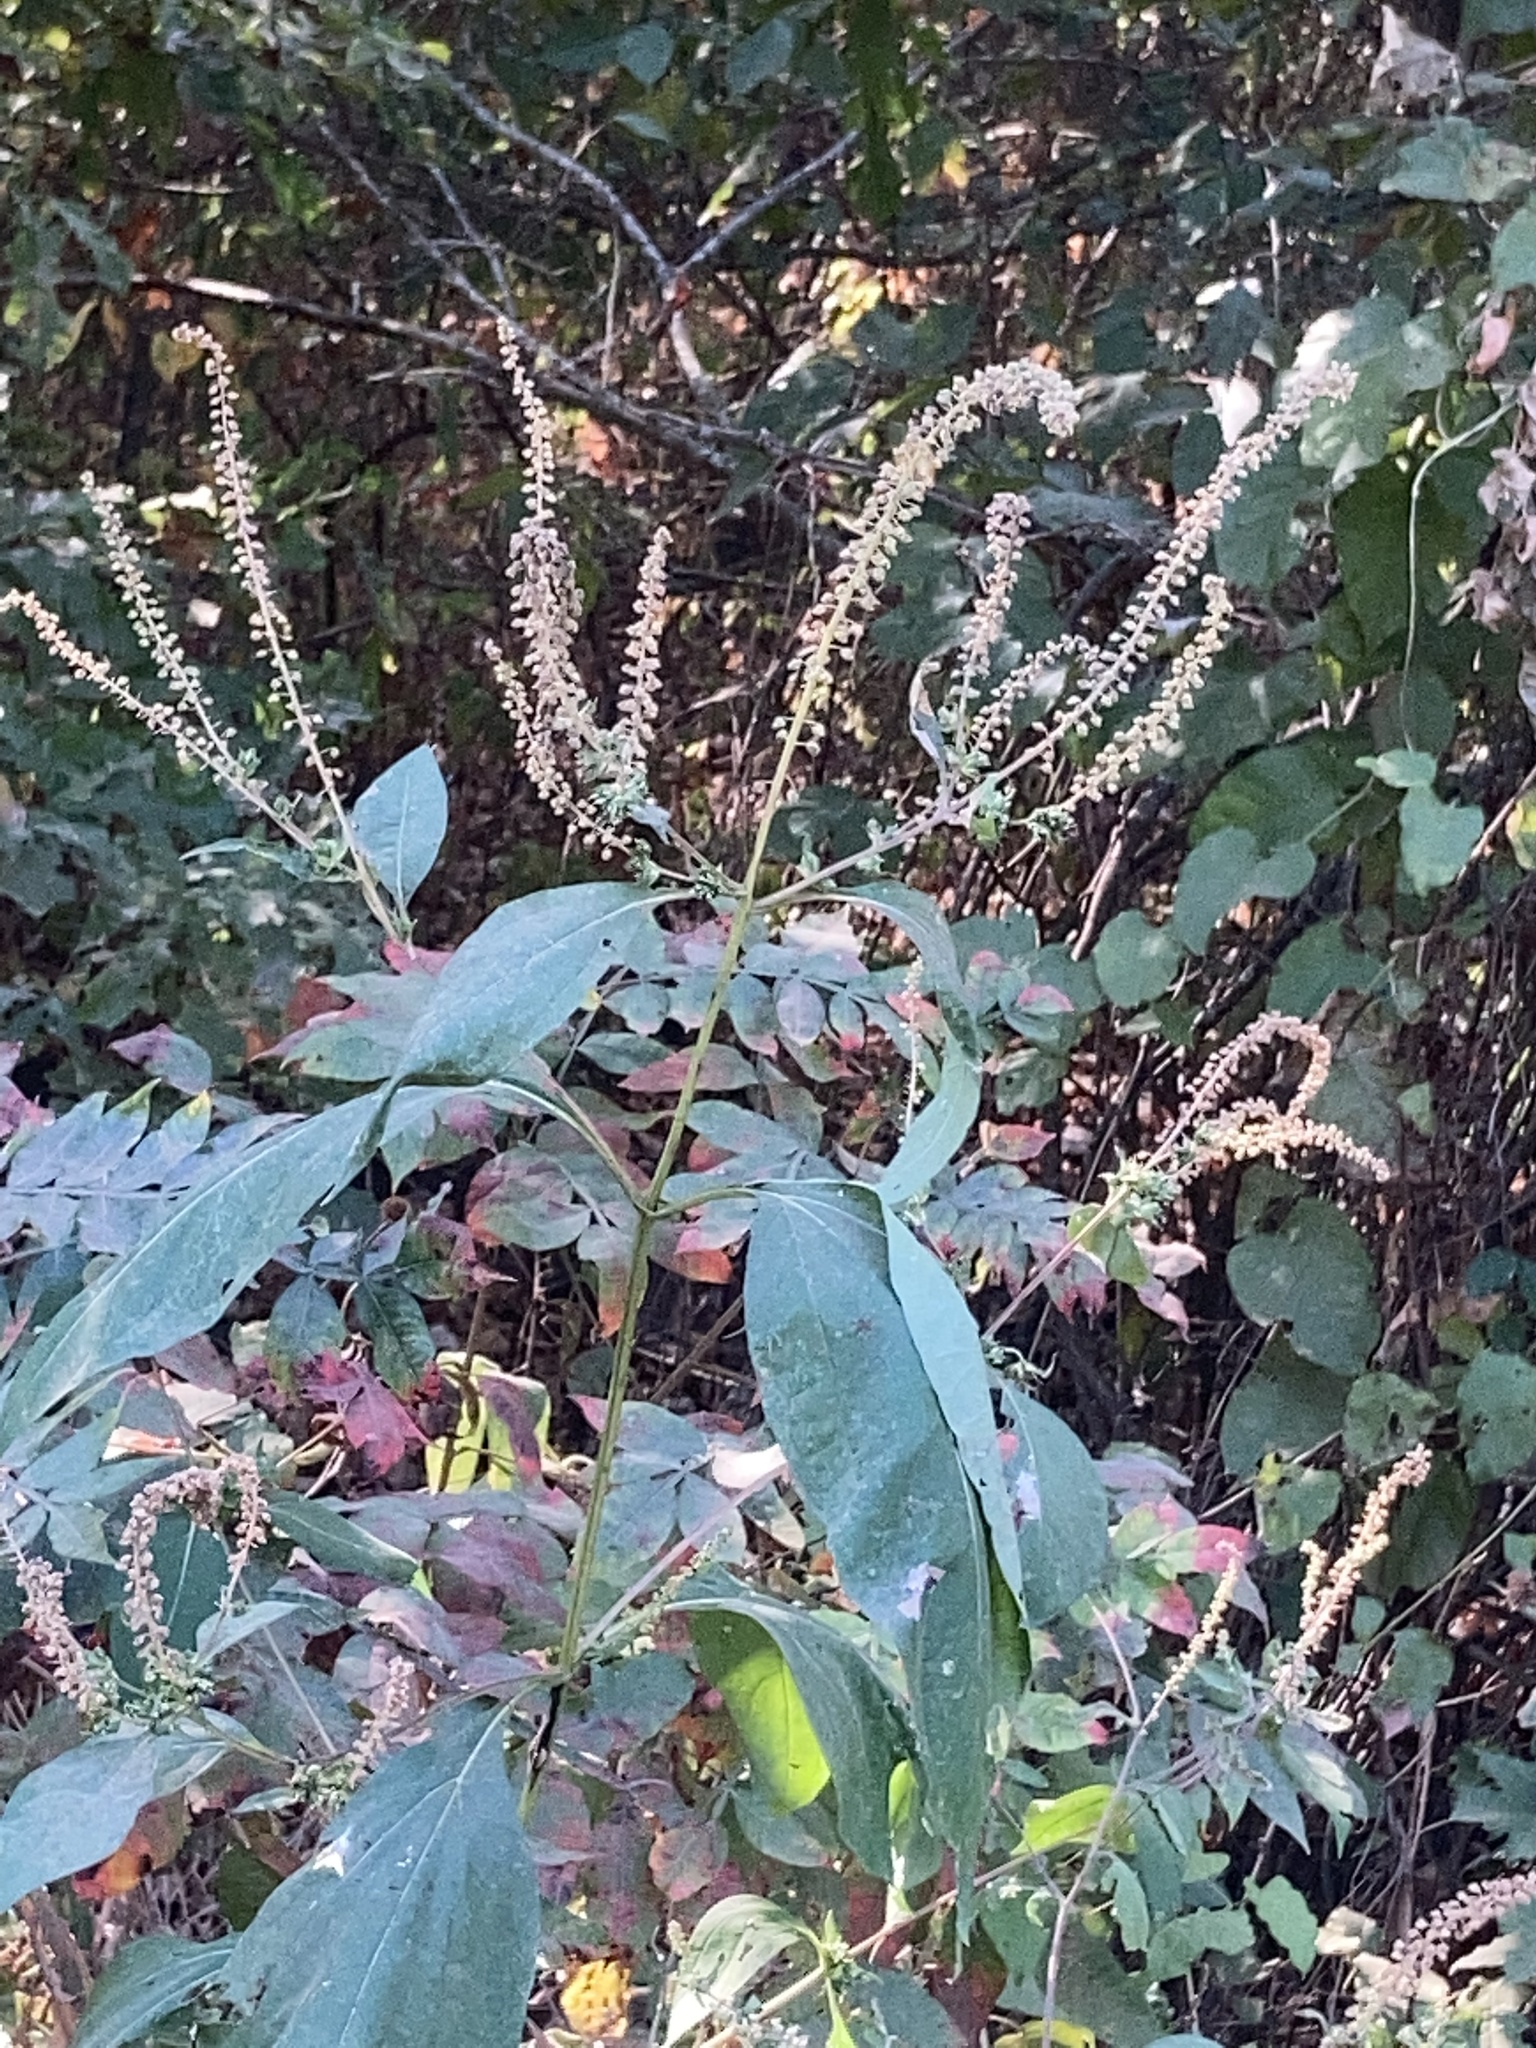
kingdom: Plantae
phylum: Tracheophyta
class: Magnoliopsida
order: Asterales
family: Asteraceae
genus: Ambrosia
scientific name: Ambrosia trifida
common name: Giant ragweed
